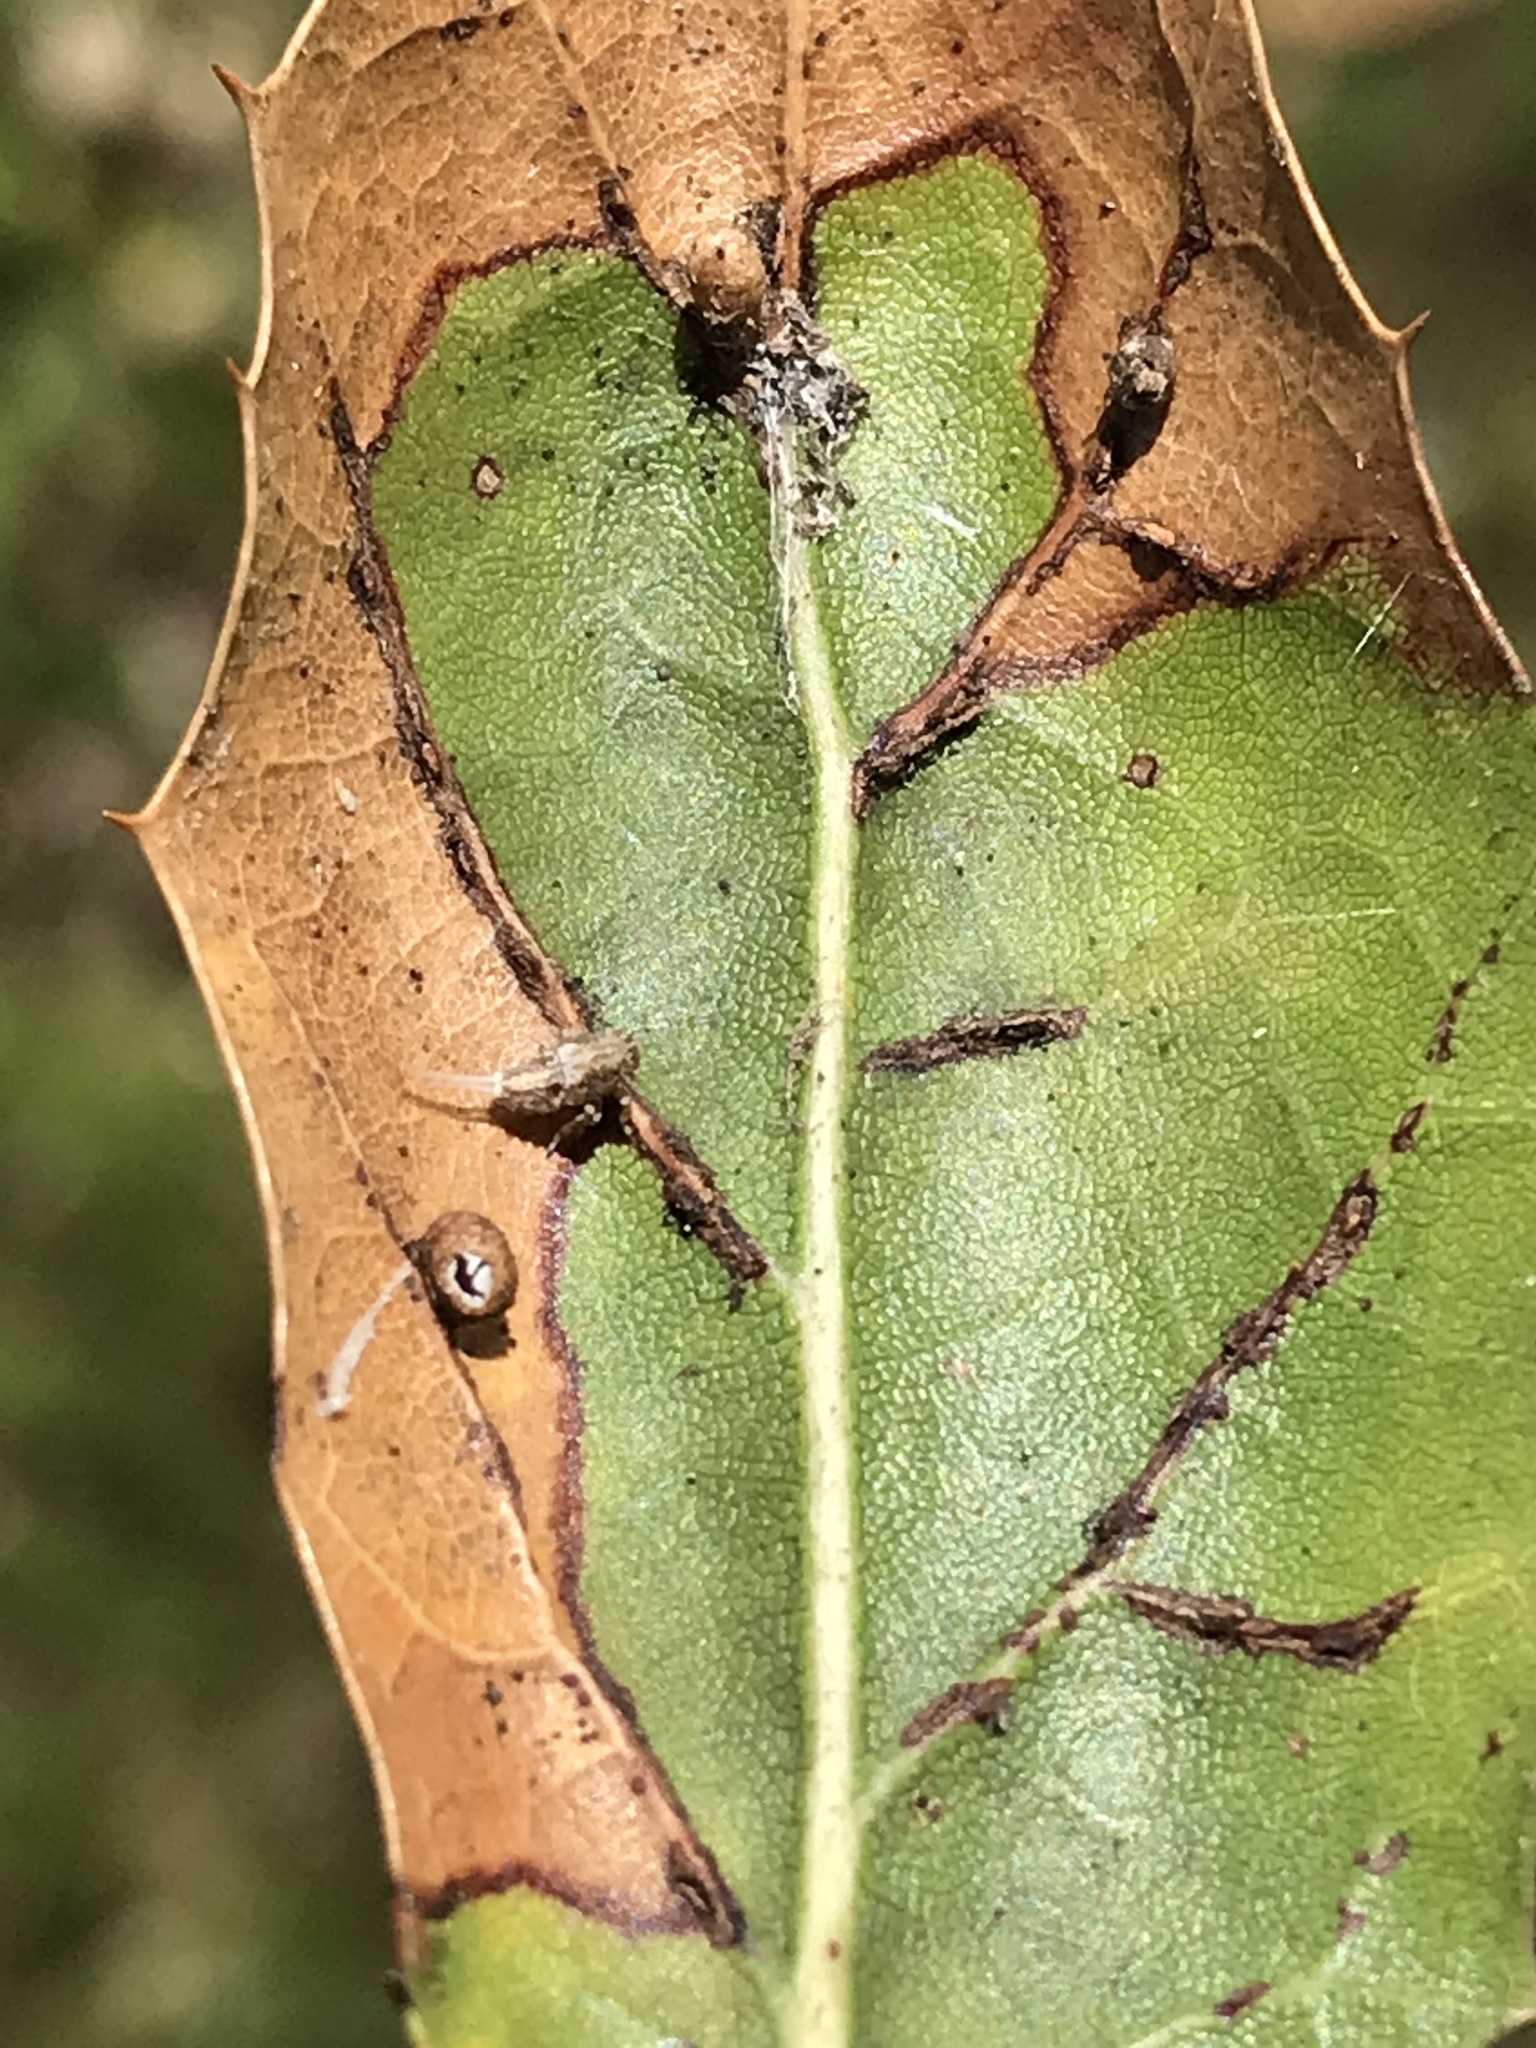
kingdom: Animalia
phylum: Arthropoda
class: Insecta
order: Hymenoptera
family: Cynipidae
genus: Dryocosmus
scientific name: Dryocosmus
